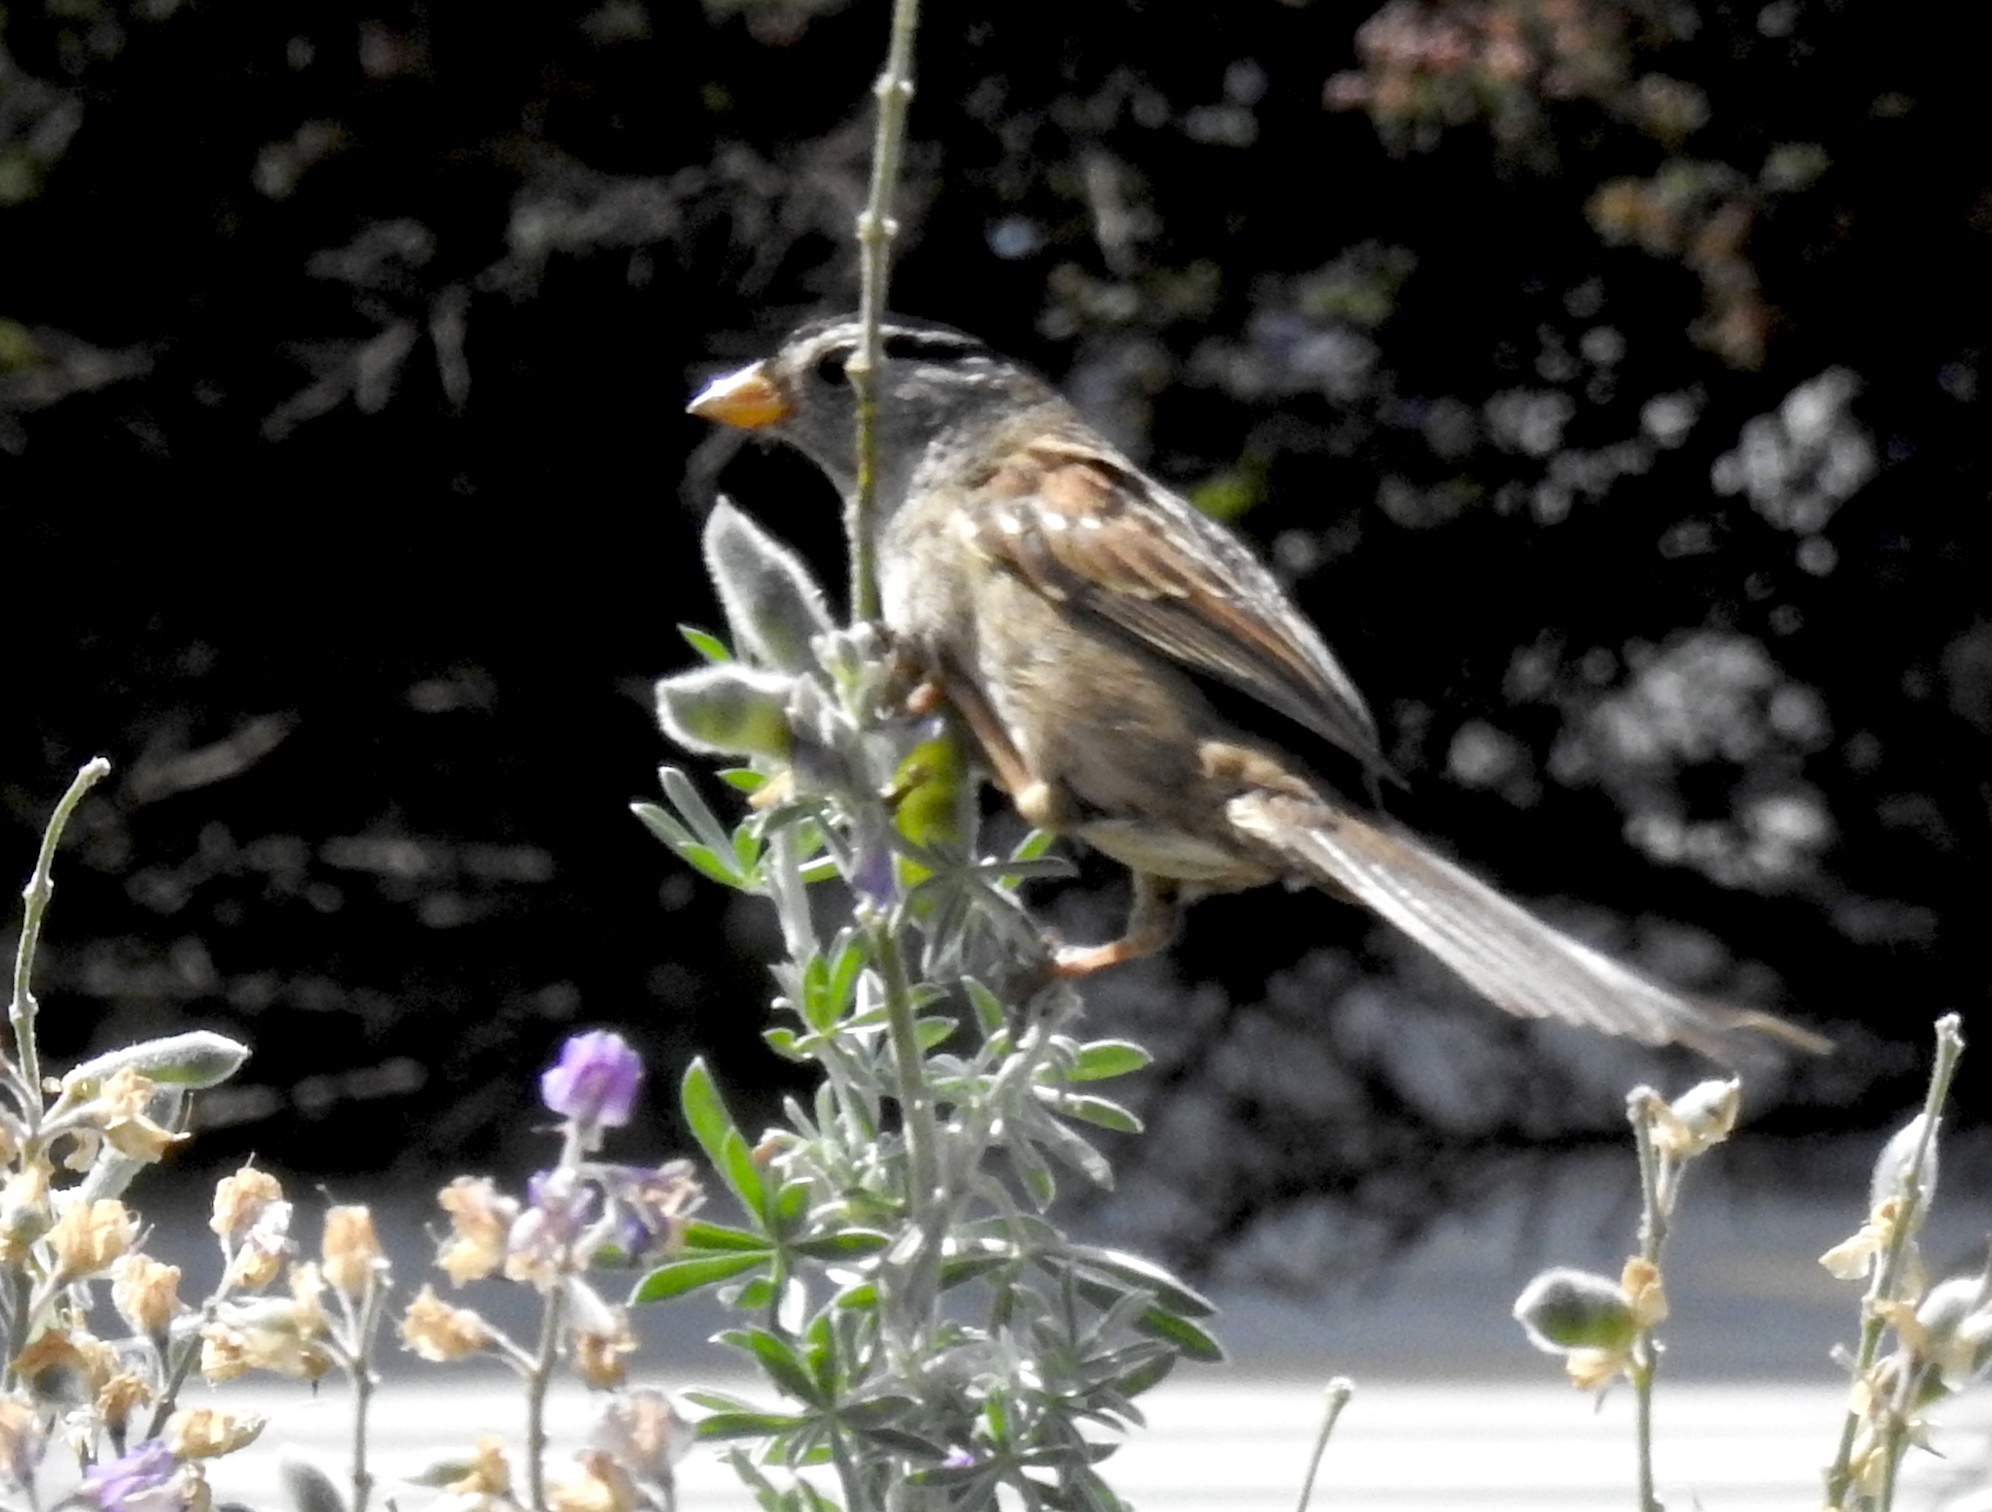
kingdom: Animalia
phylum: Chordata
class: Aves
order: Passeriformes
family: Passerellidae
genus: Zonotrichia
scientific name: Zonotrichia leucophrys
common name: White-crowned sparrow
